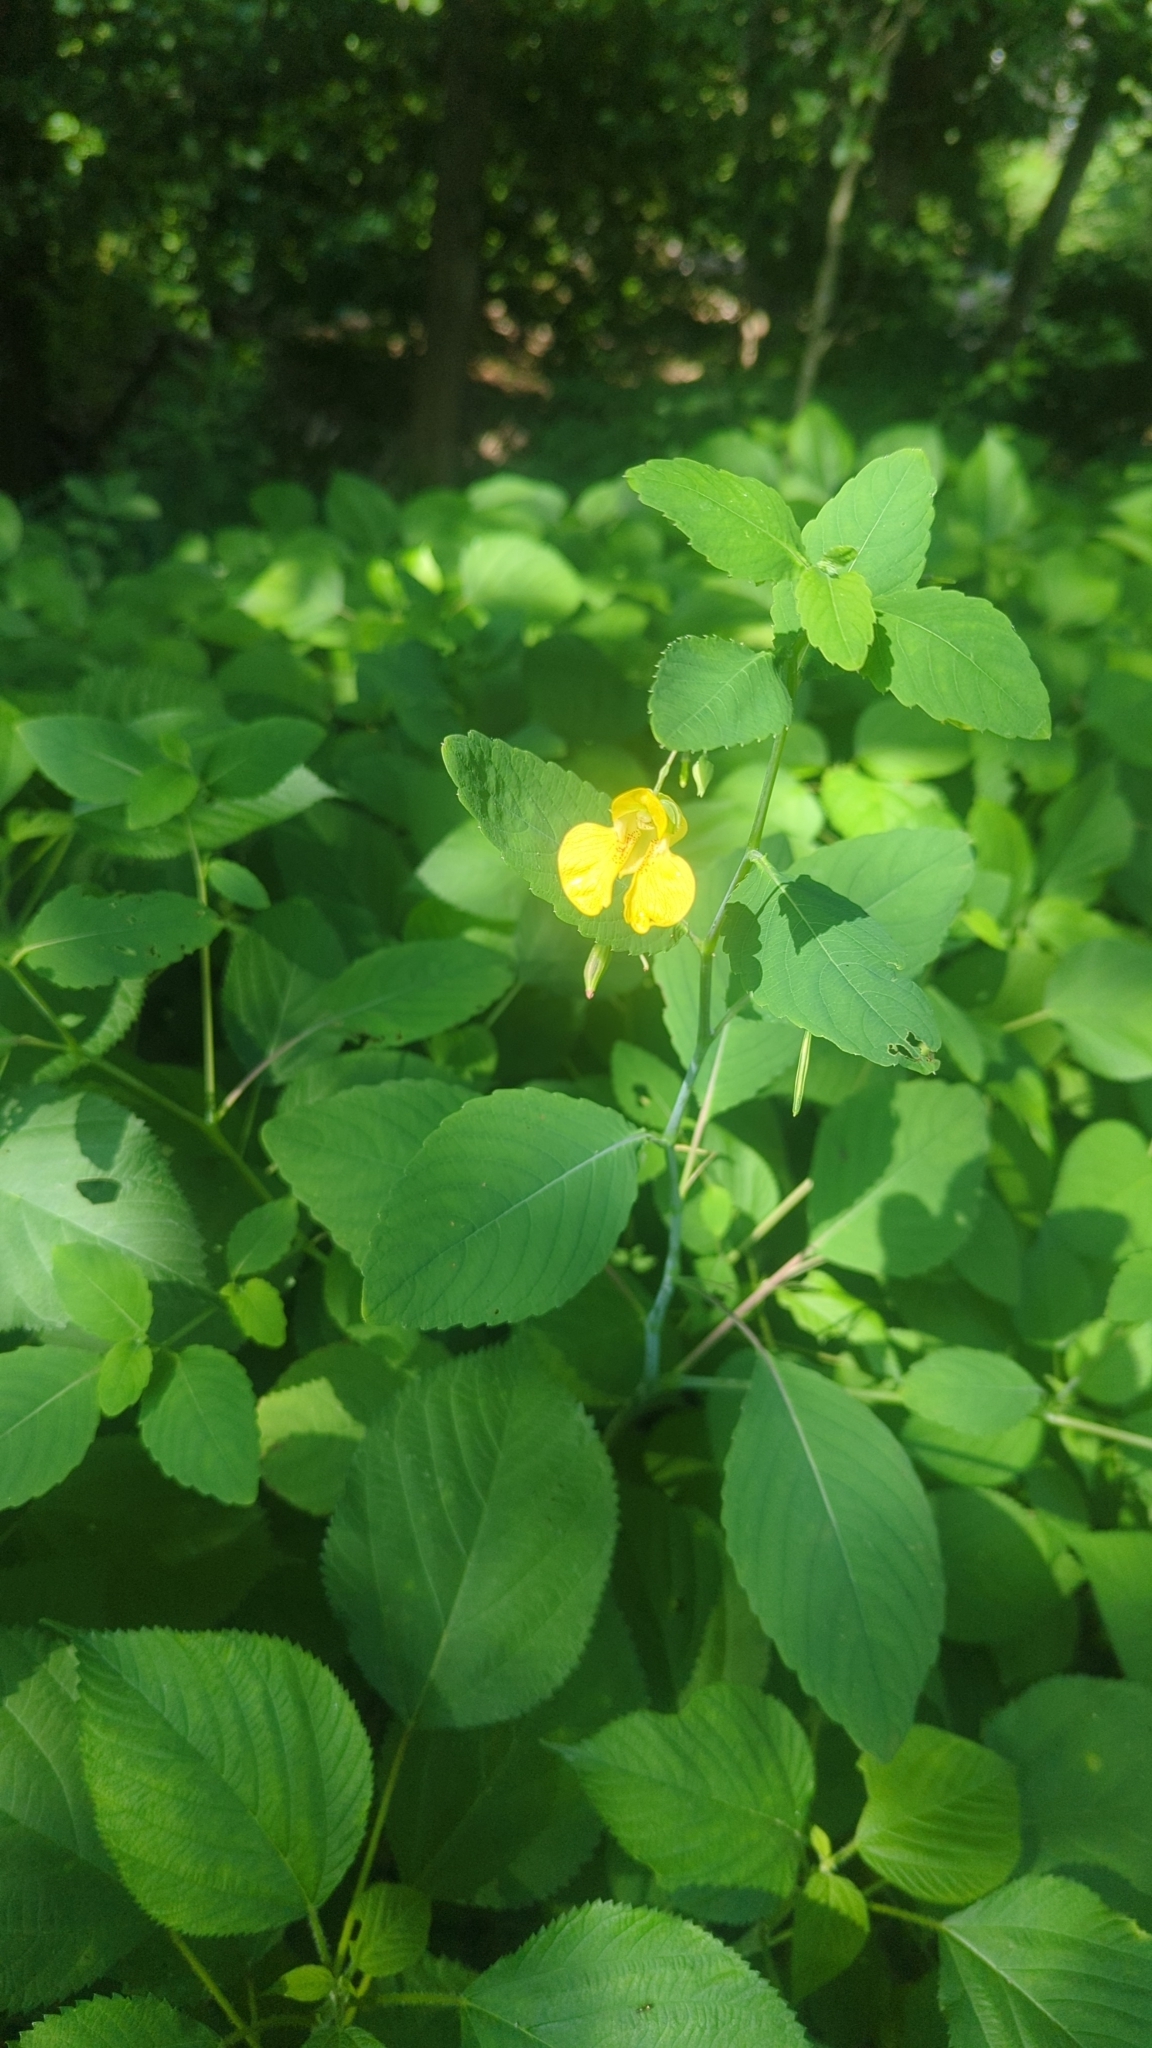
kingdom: Plantae
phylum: Tracheophyta
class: Magnoliopsida
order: Ericales
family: Balsaminaceae
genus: Impatiens
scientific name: Impatiens pallida
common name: Pale snapweed
